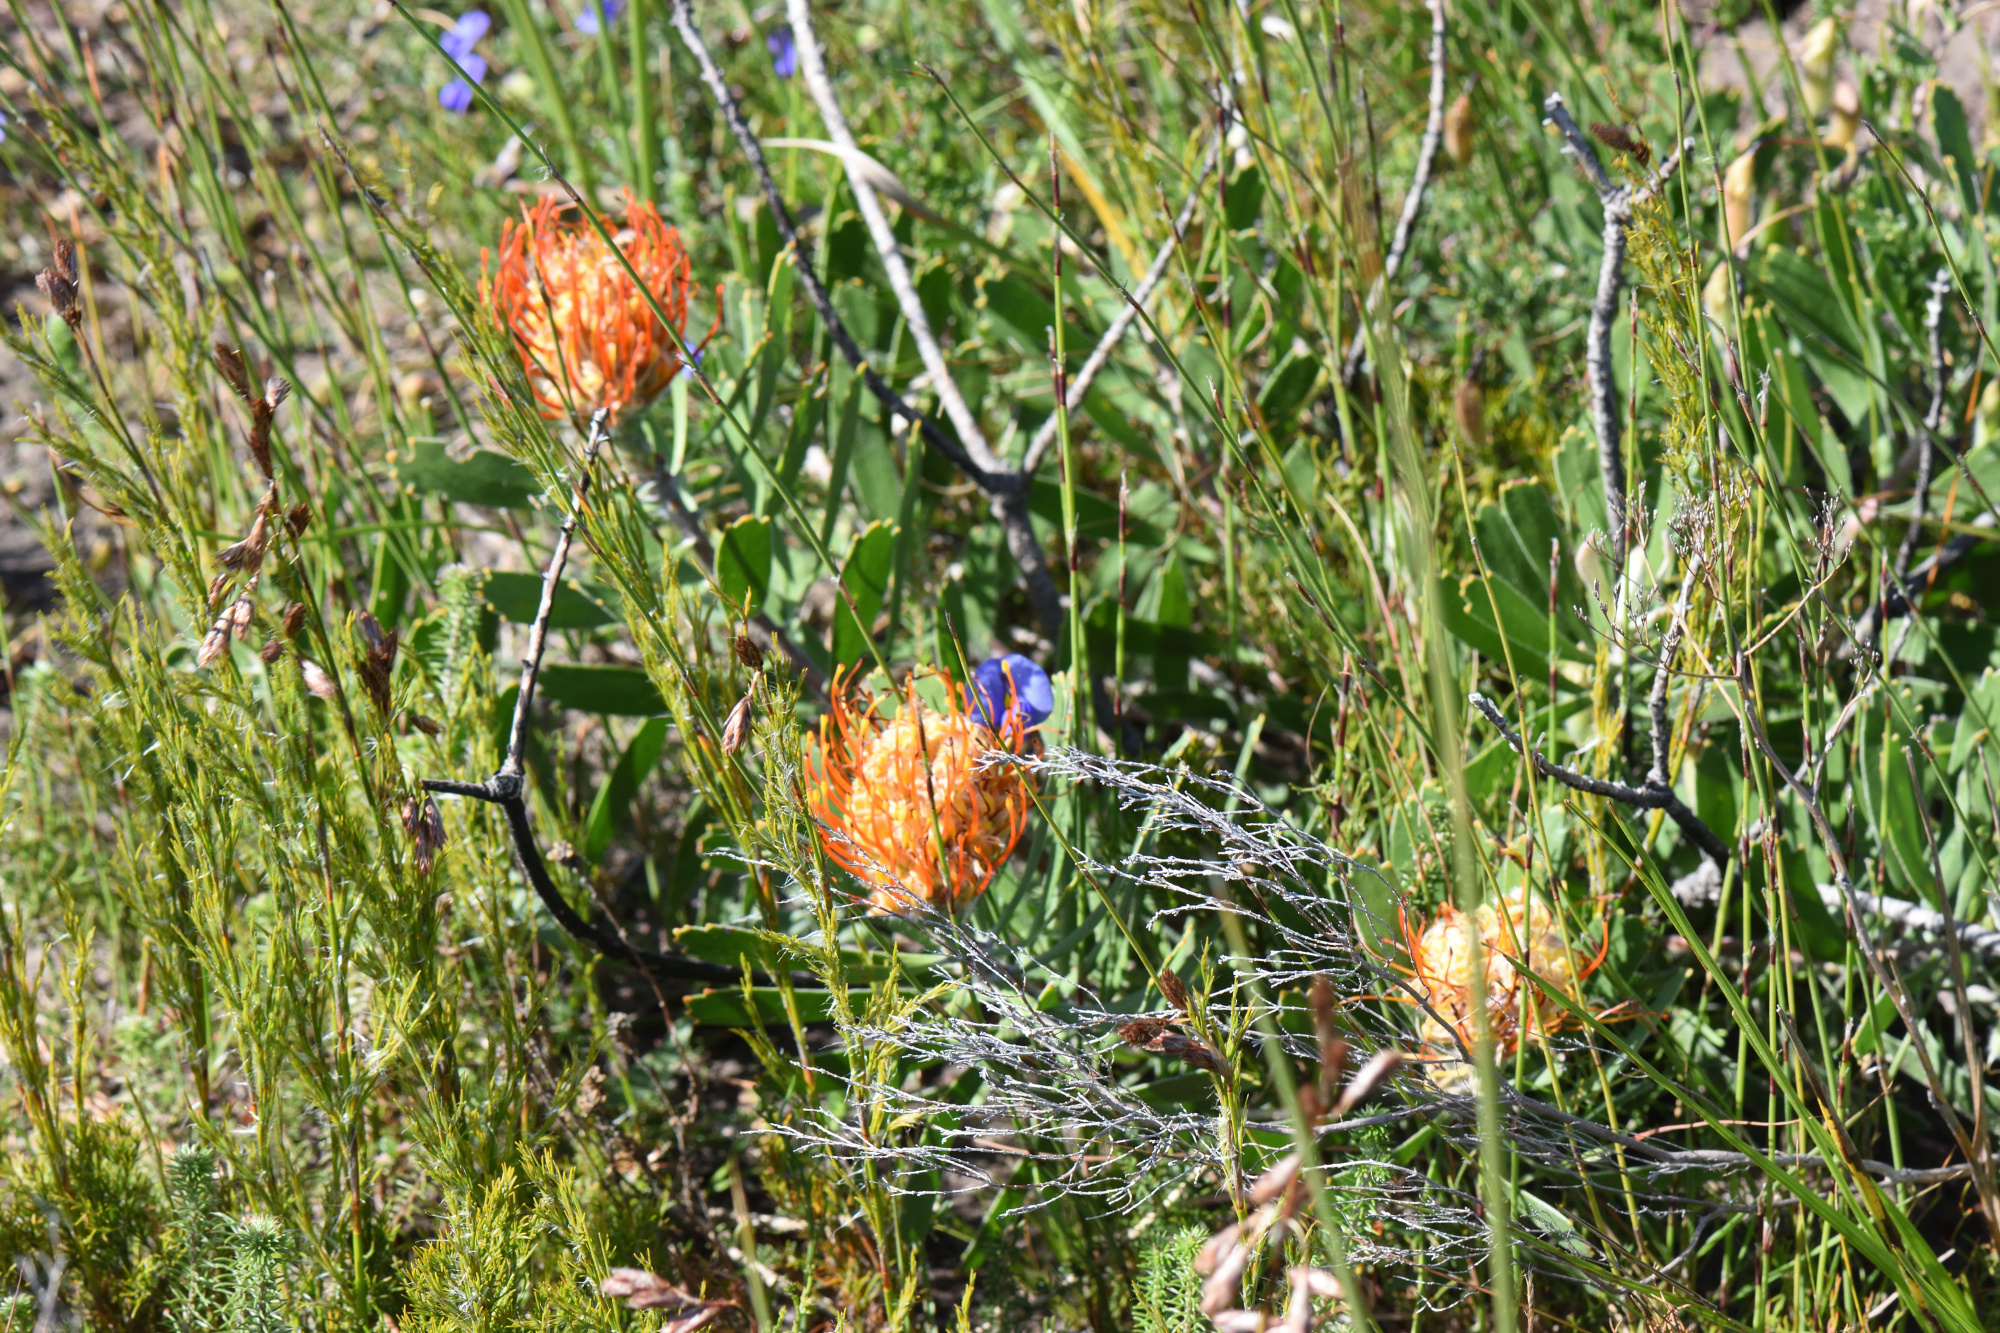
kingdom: Plantae
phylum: Tracheophyta
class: Magnoliopsida
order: Proteales
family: Proteaceae
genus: Leucospermum
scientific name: Leucospermum cuneiforme
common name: Common pincushion
